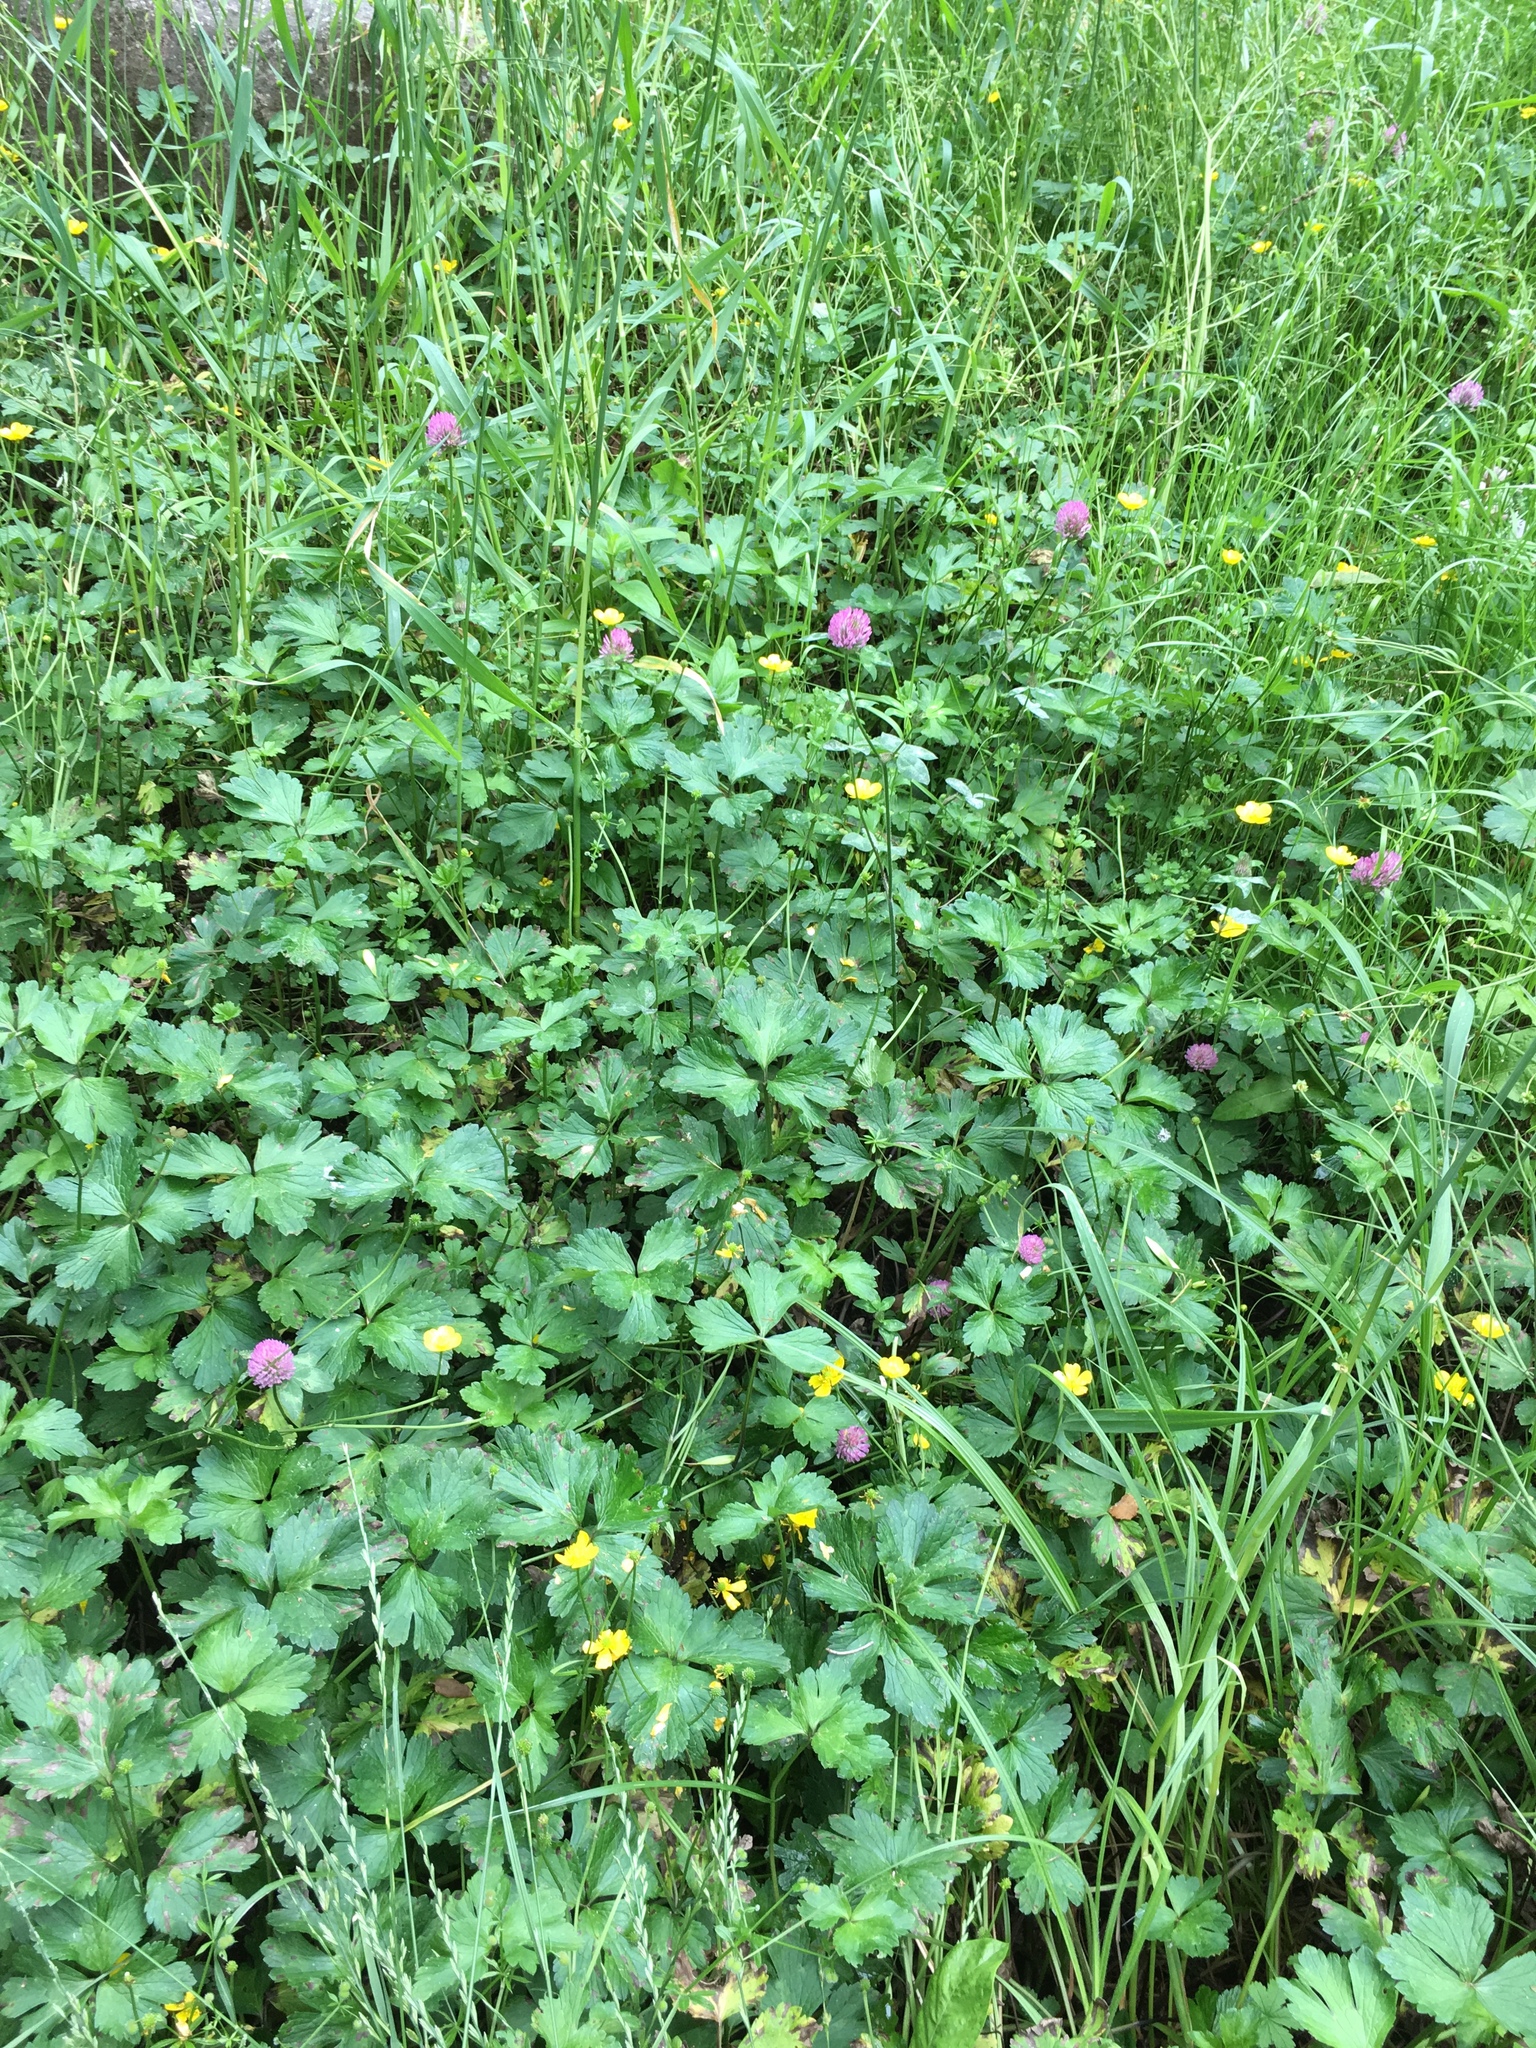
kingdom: Plantae
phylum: Tracheophyta
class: Magnoliopsida
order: Fabales
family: Fabaceae
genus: Trifolium
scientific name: Trifolium pratense
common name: Red clover
